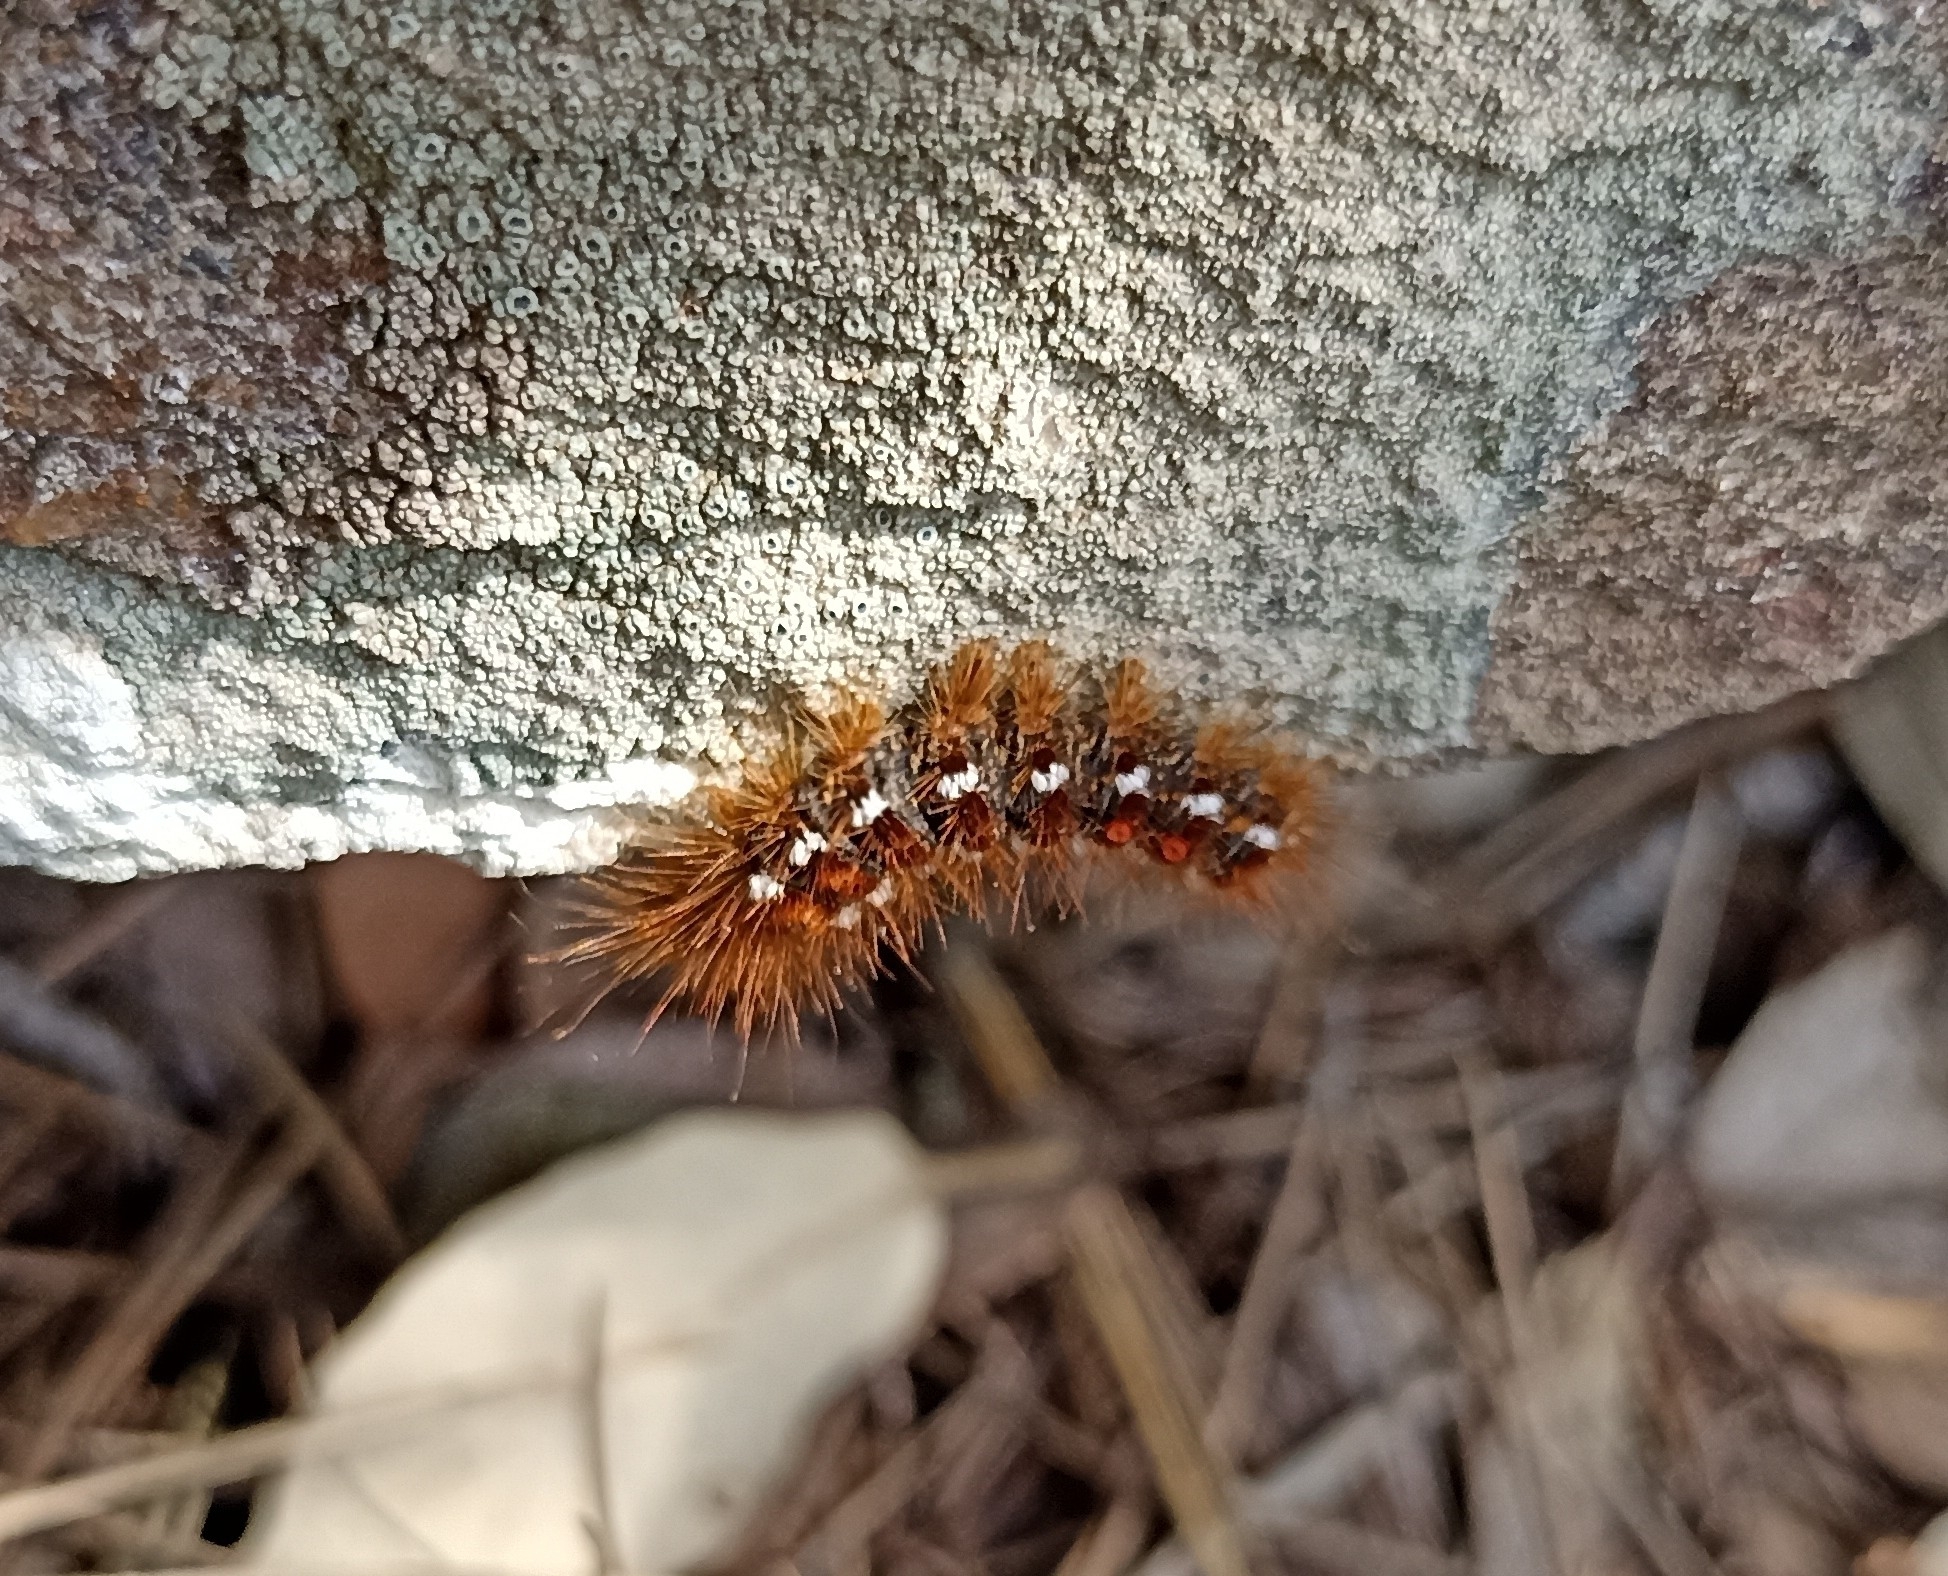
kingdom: Animalia
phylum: Arthropoda
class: Insecta
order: Lepidoptera
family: Erebidae
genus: Euproctis
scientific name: Euproctis chrysorrhoea
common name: Brown-tail
